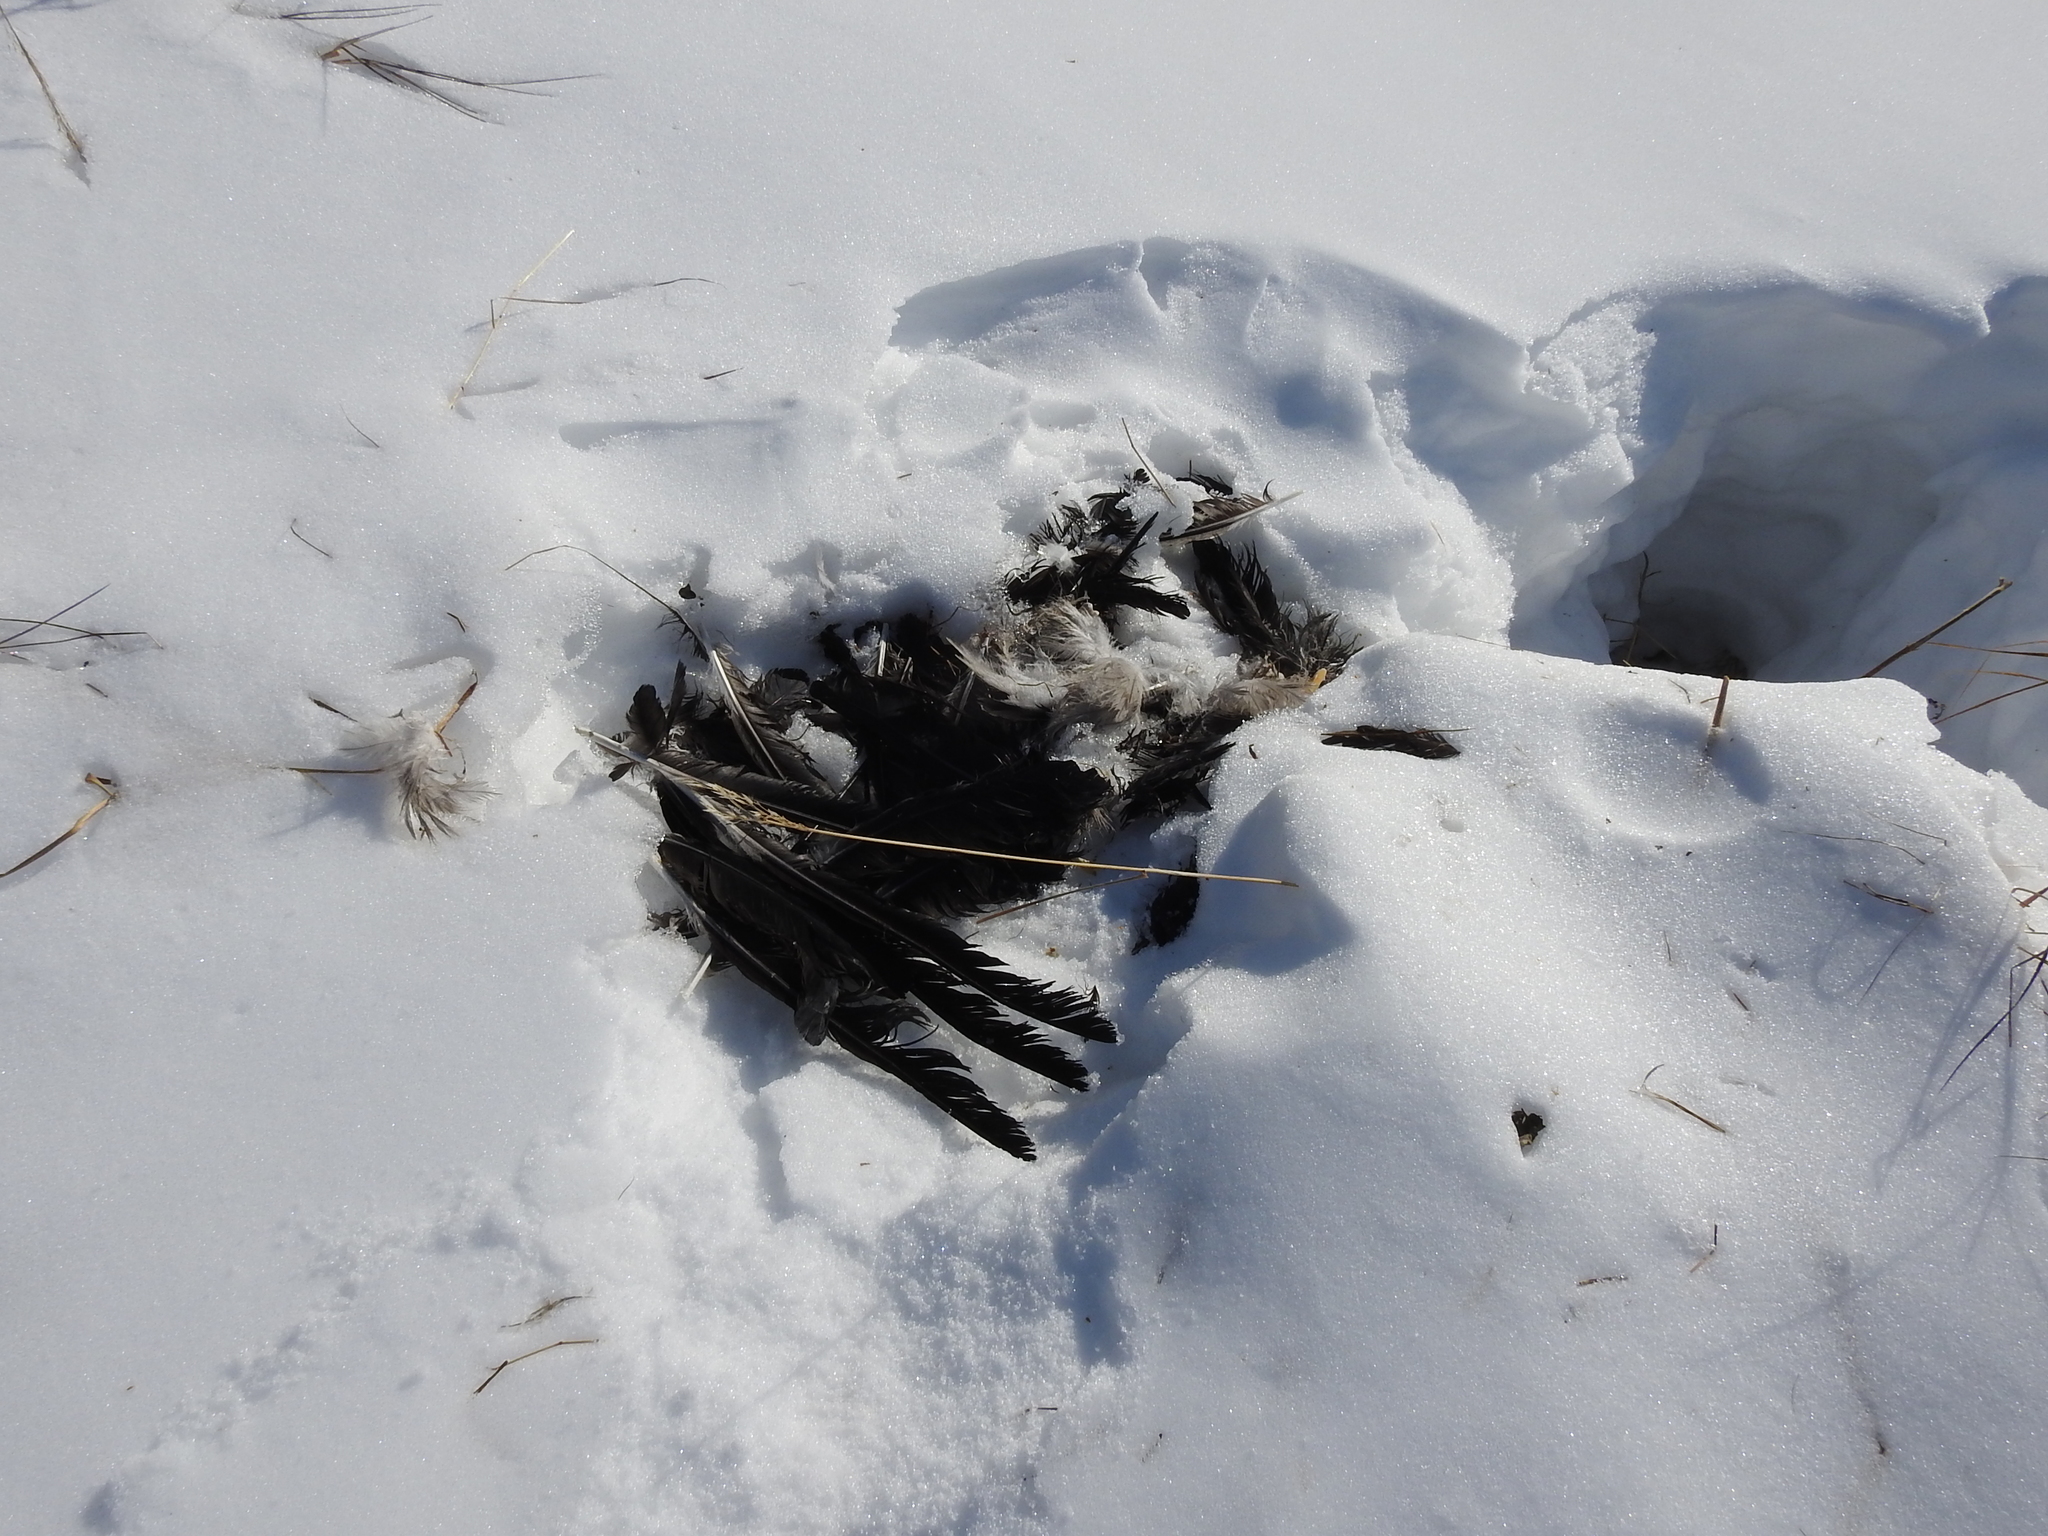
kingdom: Animalia
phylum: Chordata
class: Aves
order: Passeriformes
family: Corvidae
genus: Corvus
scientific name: Corvus cornix
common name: Hooded crow
